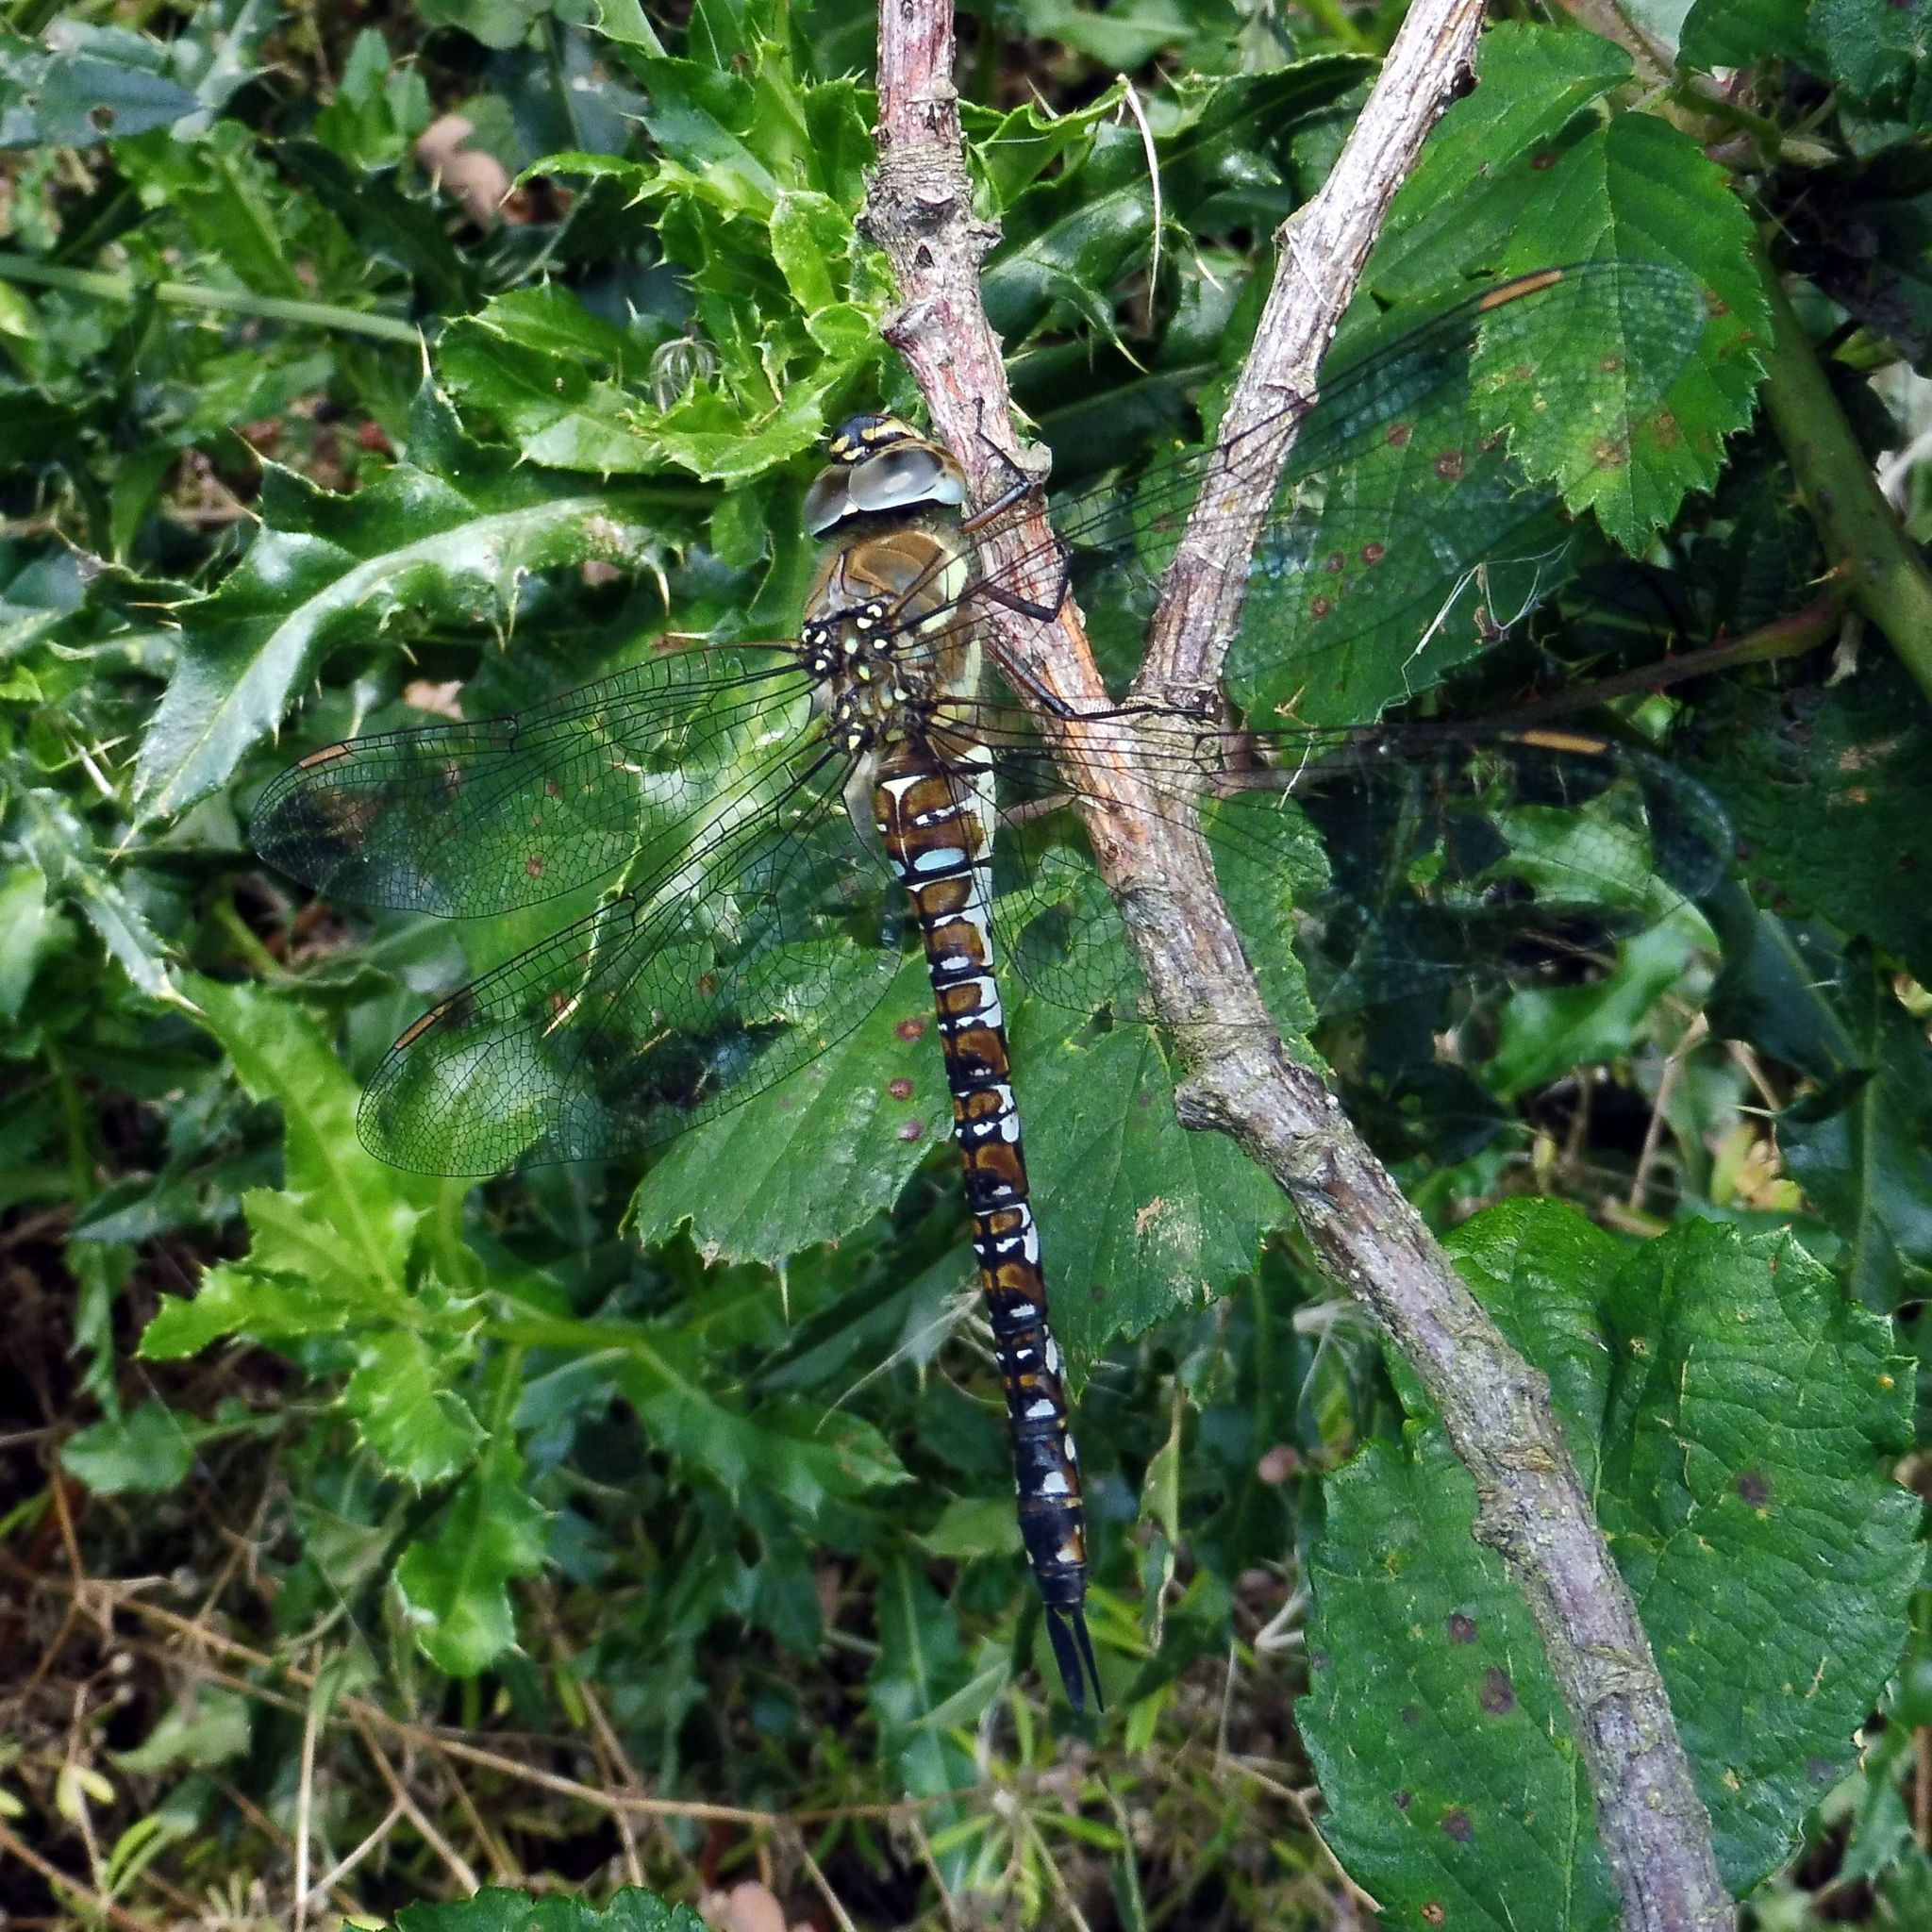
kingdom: Animalia
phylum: Arthropoda
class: Insecta
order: Odonata
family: Aeshnidae
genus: Aeshna
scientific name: Aeshna mixta
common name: Migrant hawker
